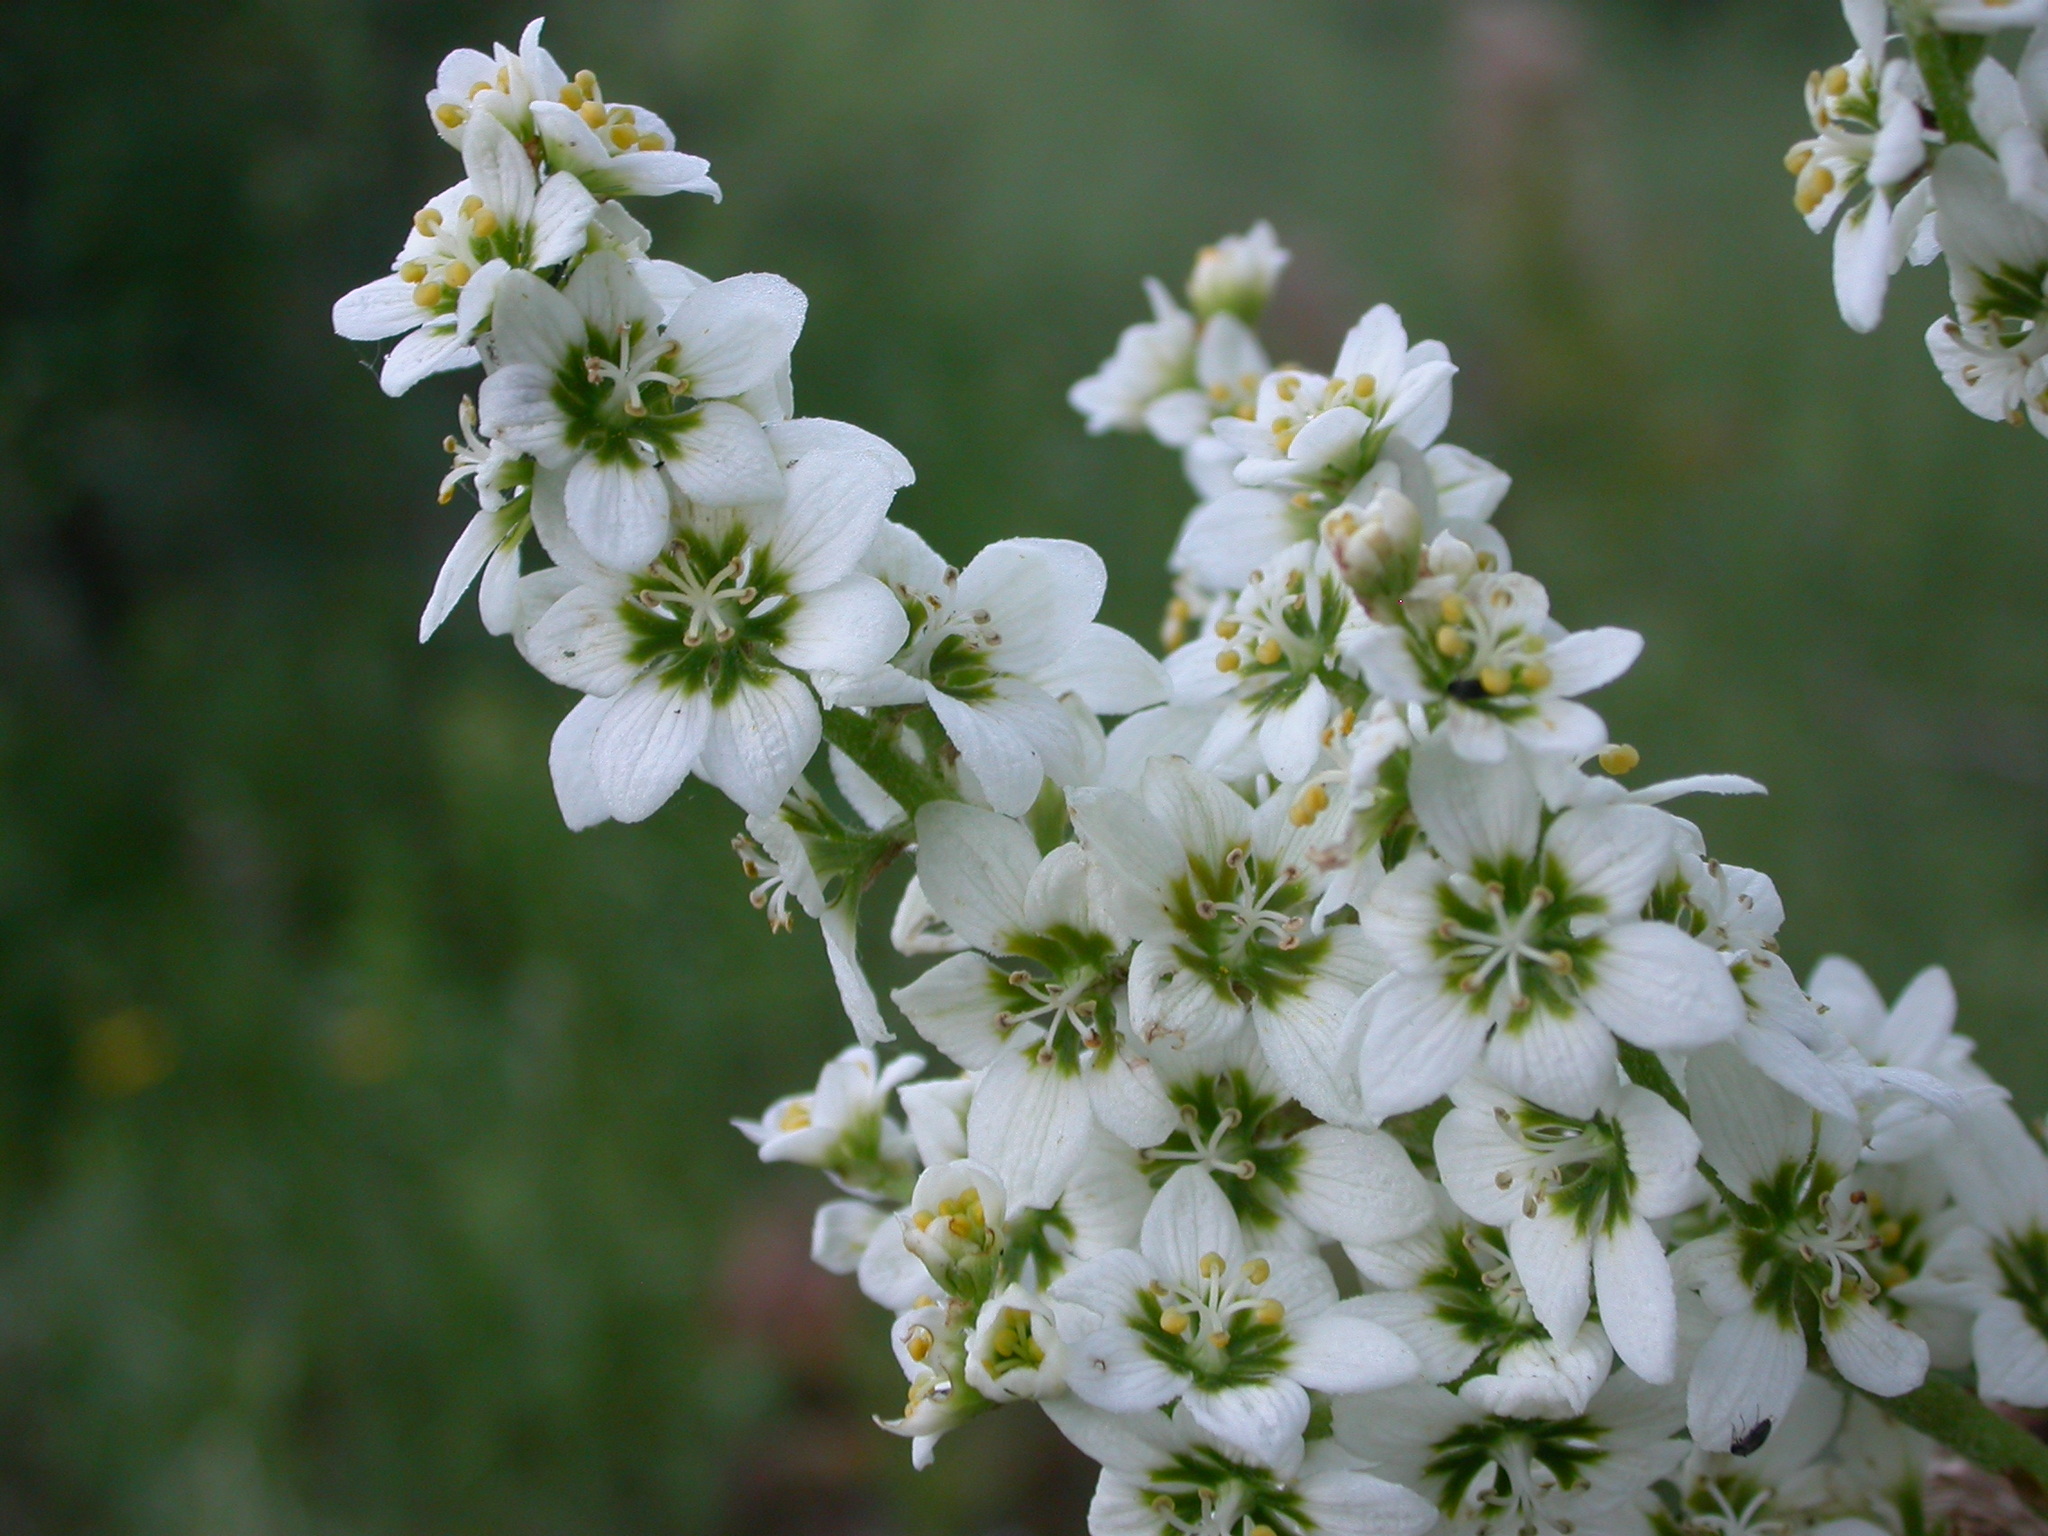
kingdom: Plantae
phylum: Tracheophyta
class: Liliopsida
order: Liliales
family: Melanthiaceae
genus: Veratrum
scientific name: Veratrum californicum
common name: California veratrum
